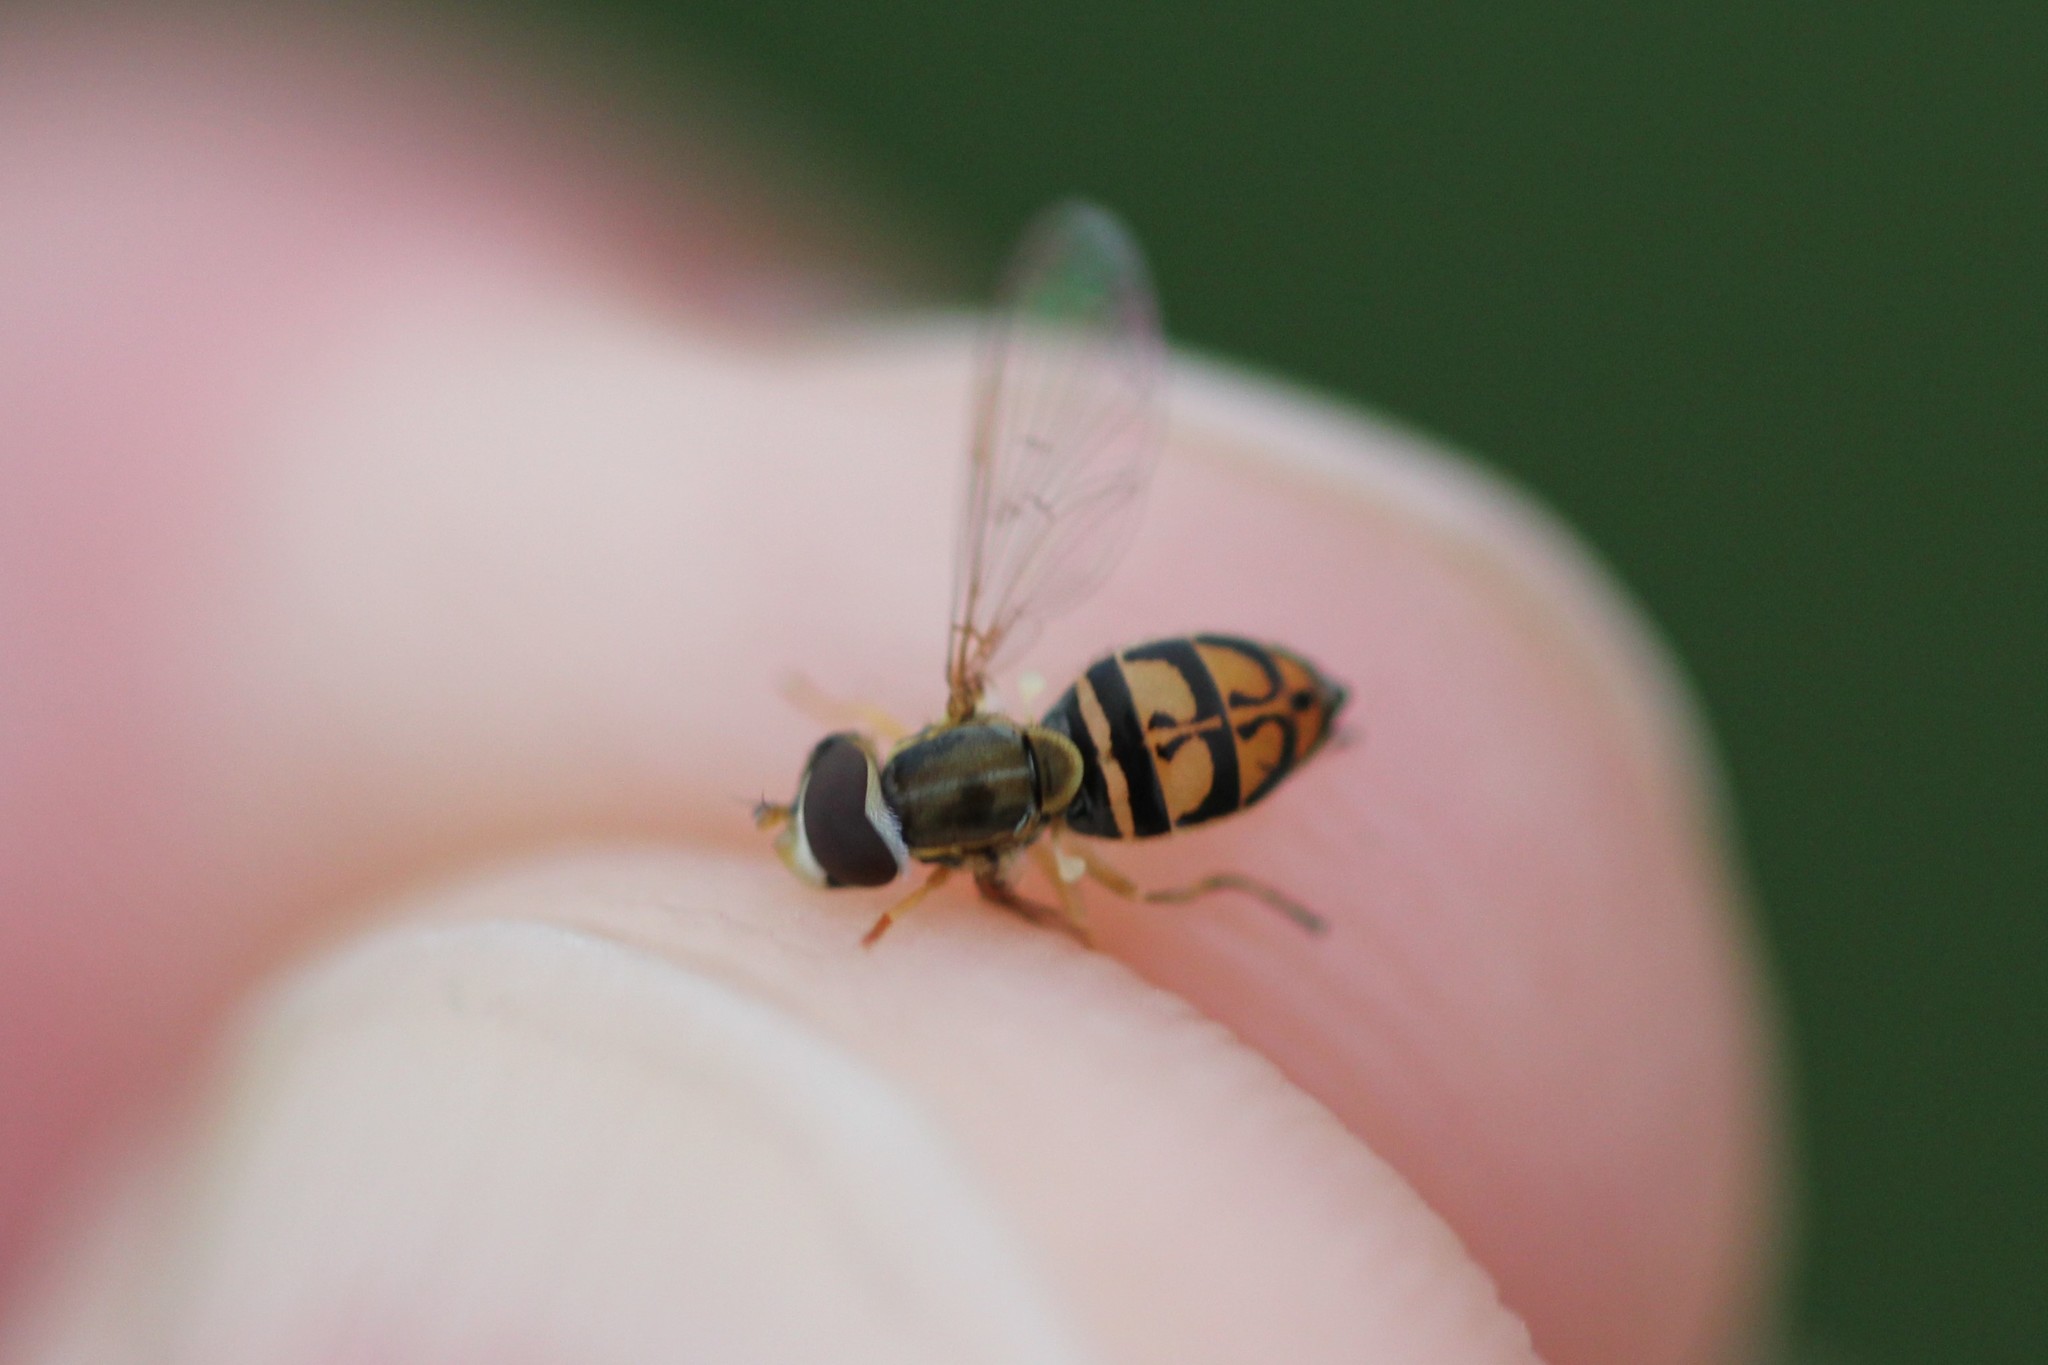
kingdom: Animalia
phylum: Arthropoda
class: Insecta
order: Diptera
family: Syrphidae
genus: Toxomerus
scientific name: Toxomerus marginatus
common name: Syrphid fly
